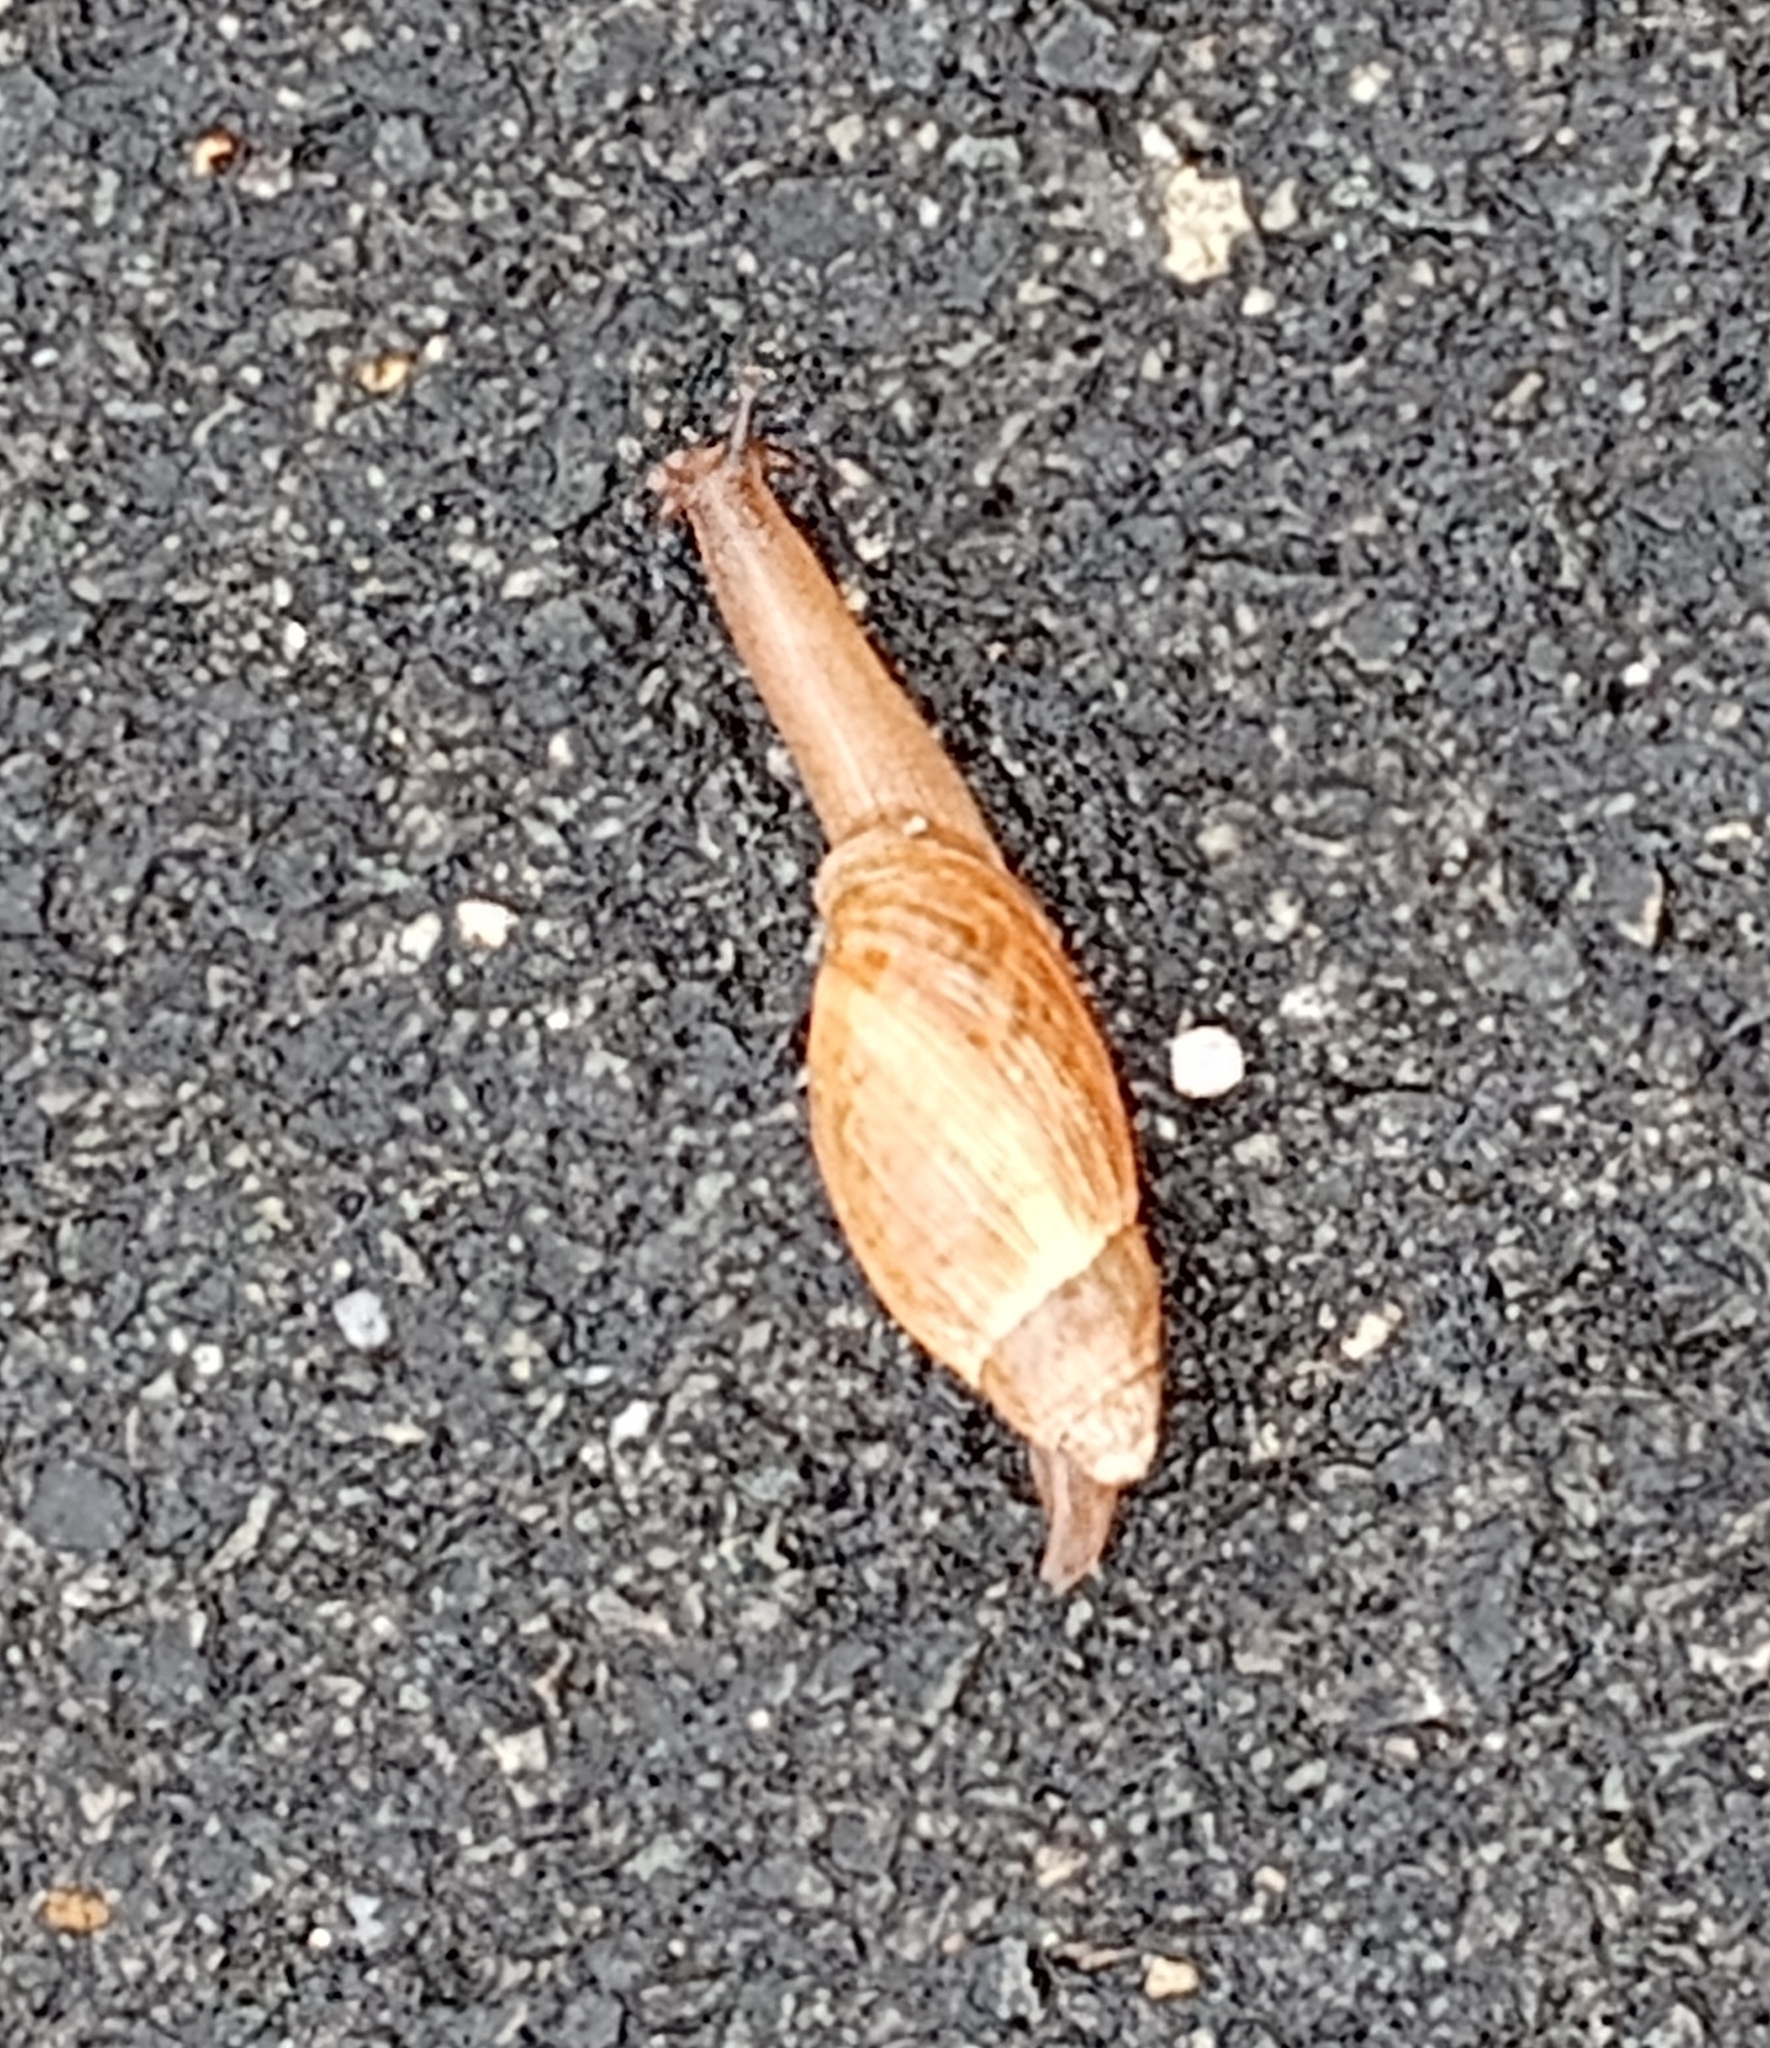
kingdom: Animalia
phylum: Mollusca
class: Gastropoda
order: Stylommatophora
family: Spiraxidae
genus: Euglandina
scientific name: Euglandina rosea
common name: Rosy wolfsnail
